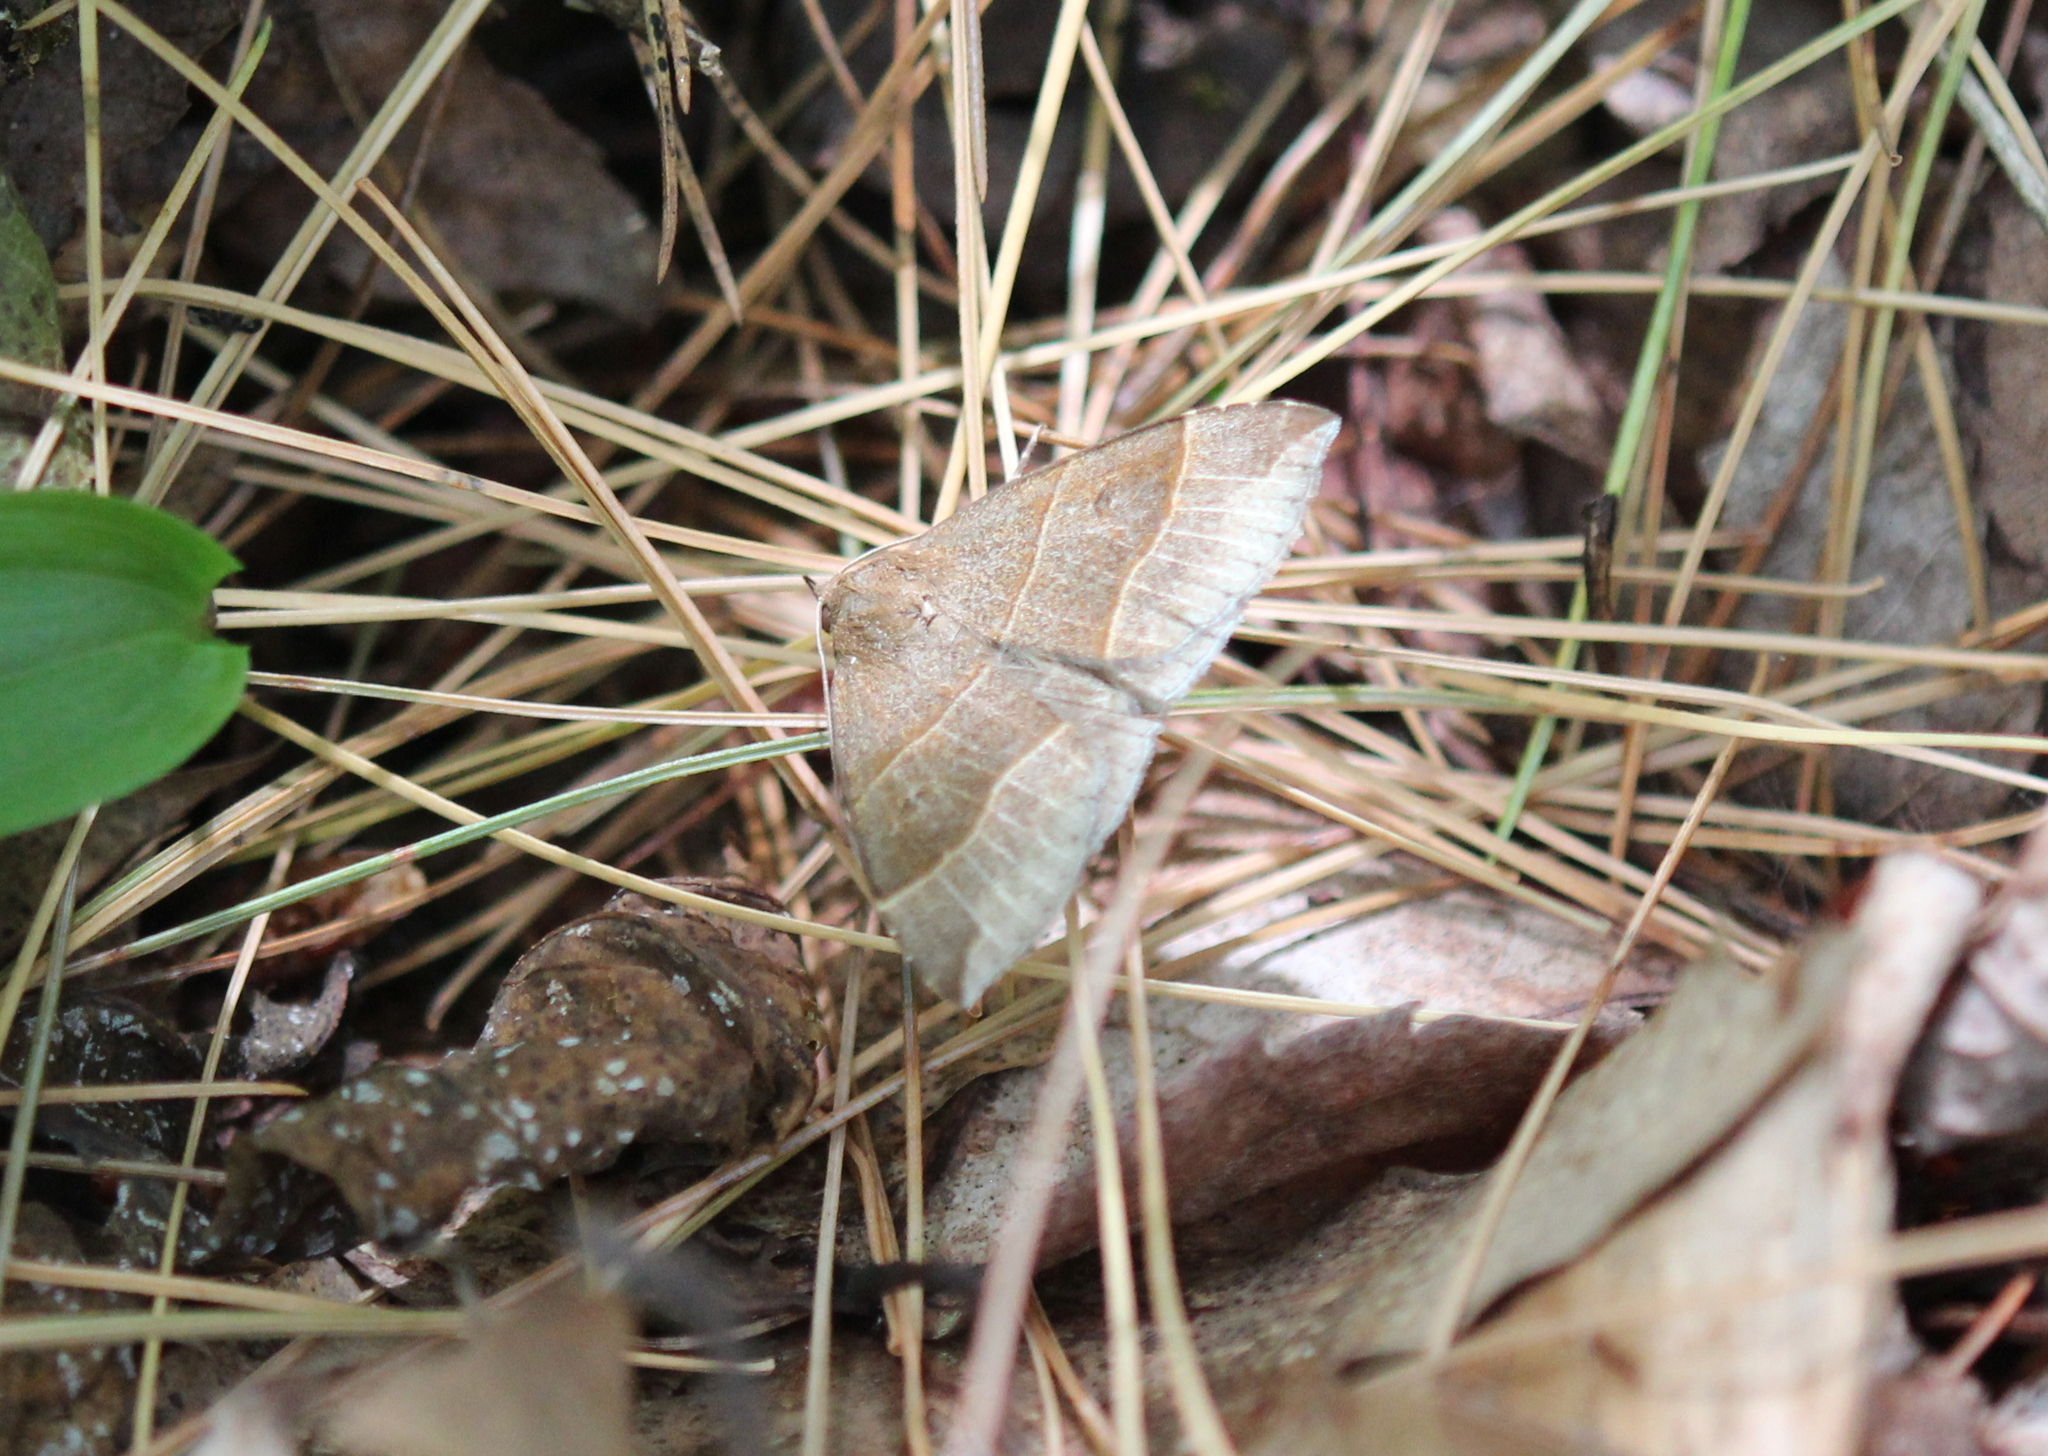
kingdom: Animalia
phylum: Arthropoda
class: Insecta
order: Lepidoptera
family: Erebidae
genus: Parallelia
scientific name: Parallelia bistriaris
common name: Maple looper moth
